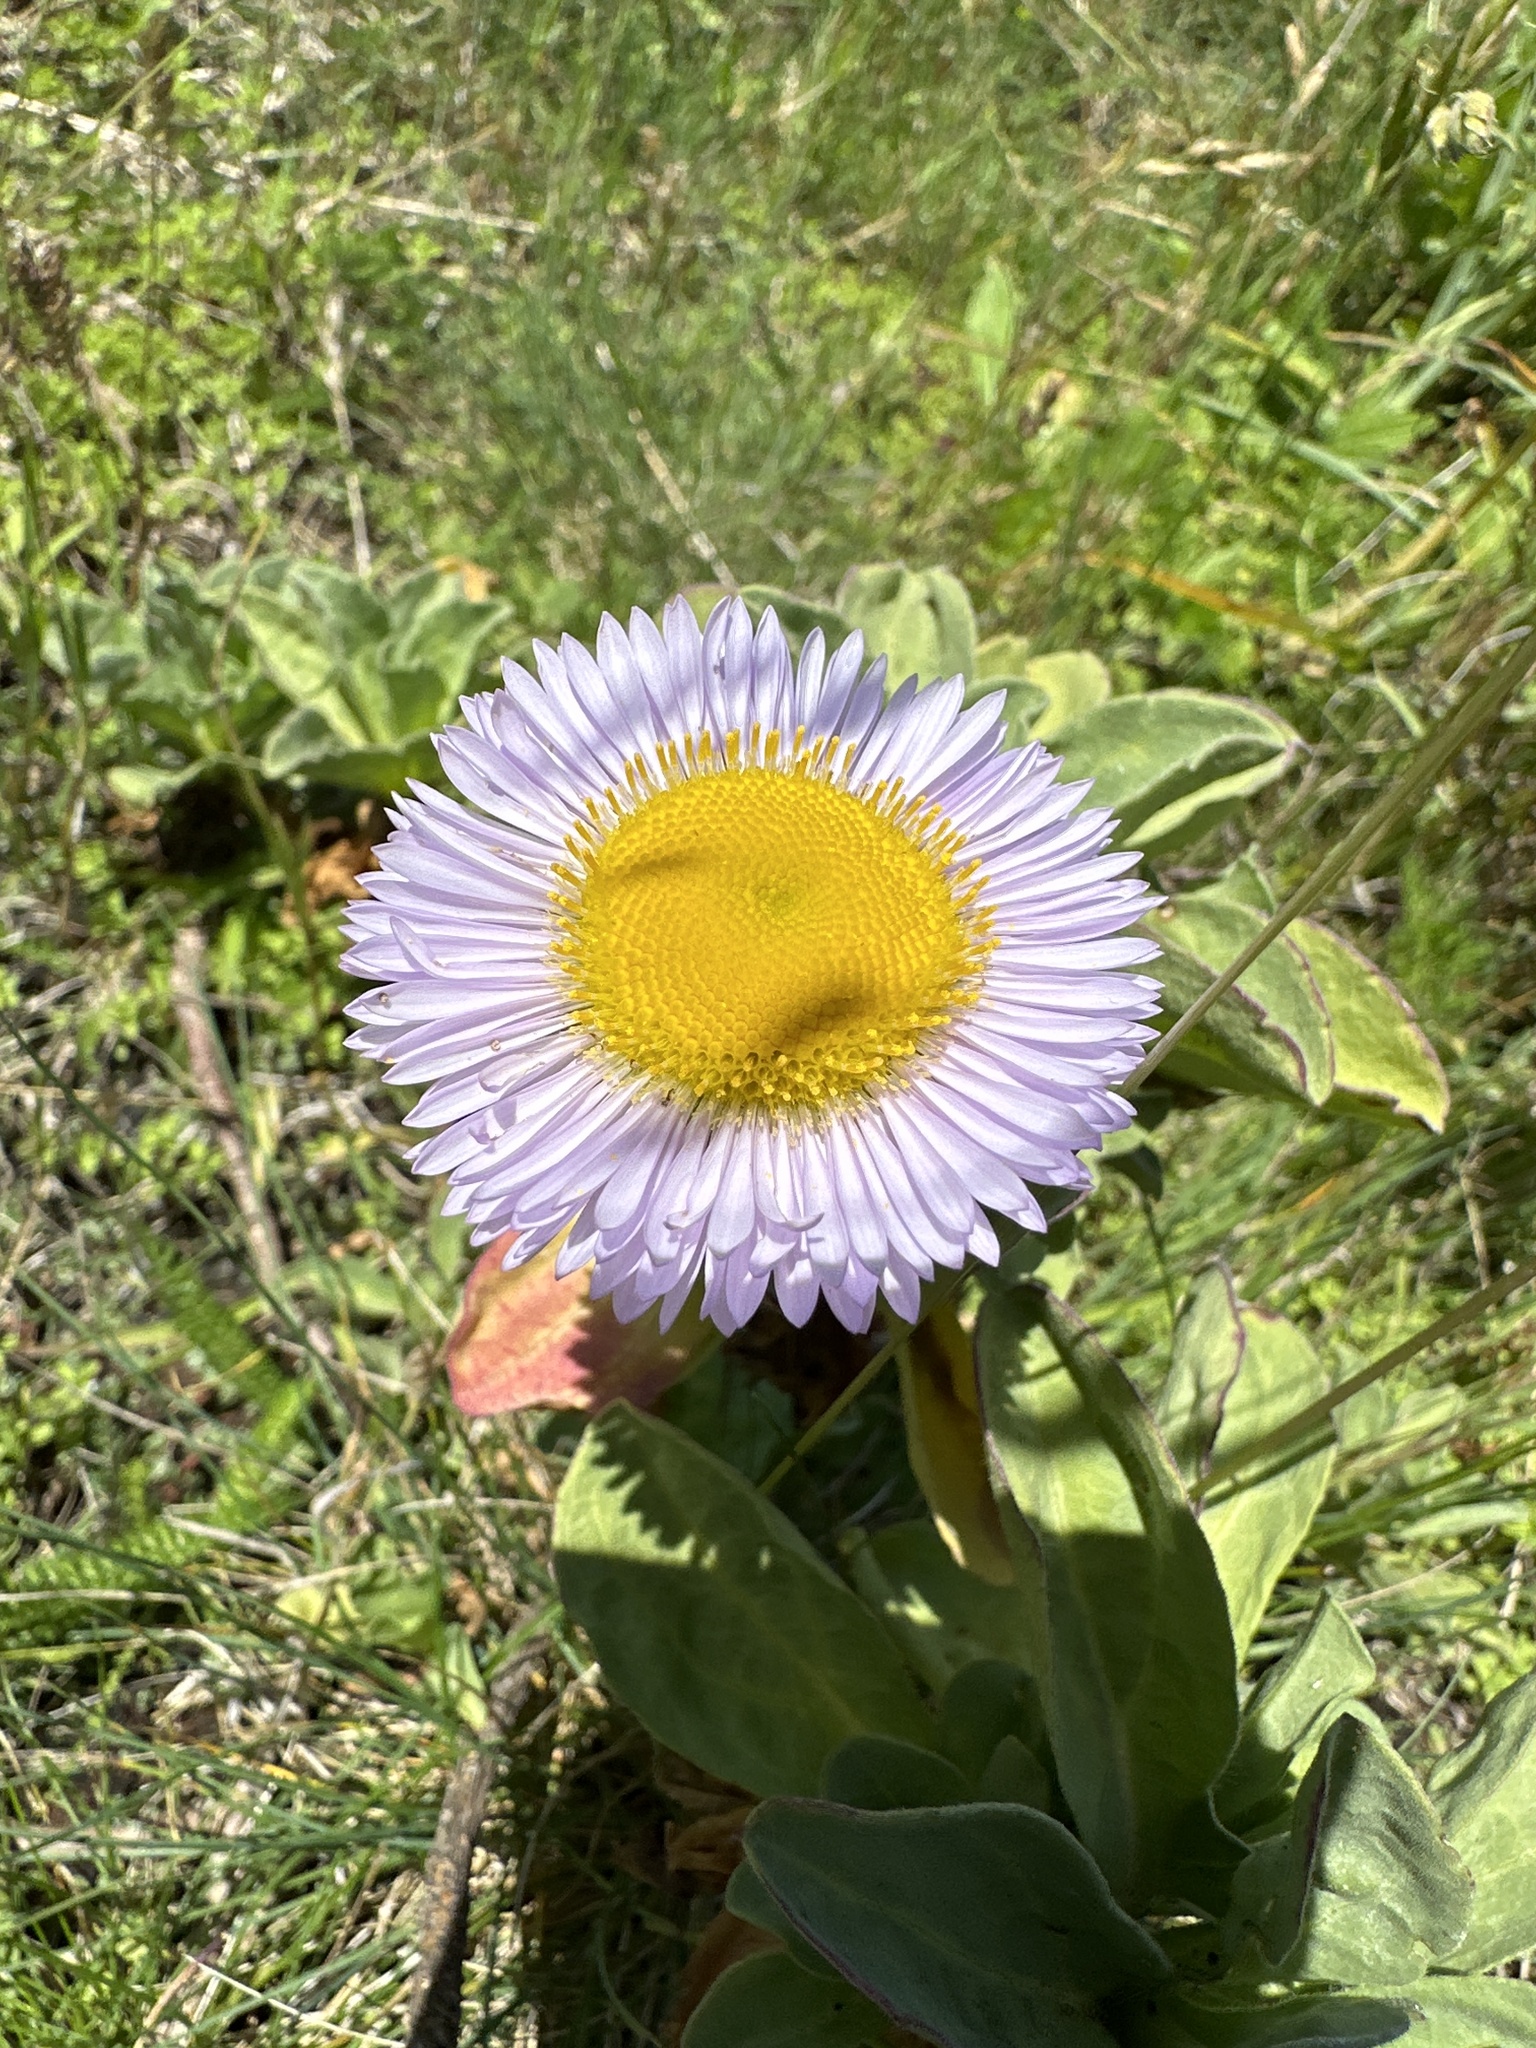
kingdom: Plantae
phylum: Tracheophyta
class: Magnoliopsida
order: Asterales
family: Asteraceae
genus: Erigeron
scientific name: Erigeron glaucus
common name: Seaside daisy
